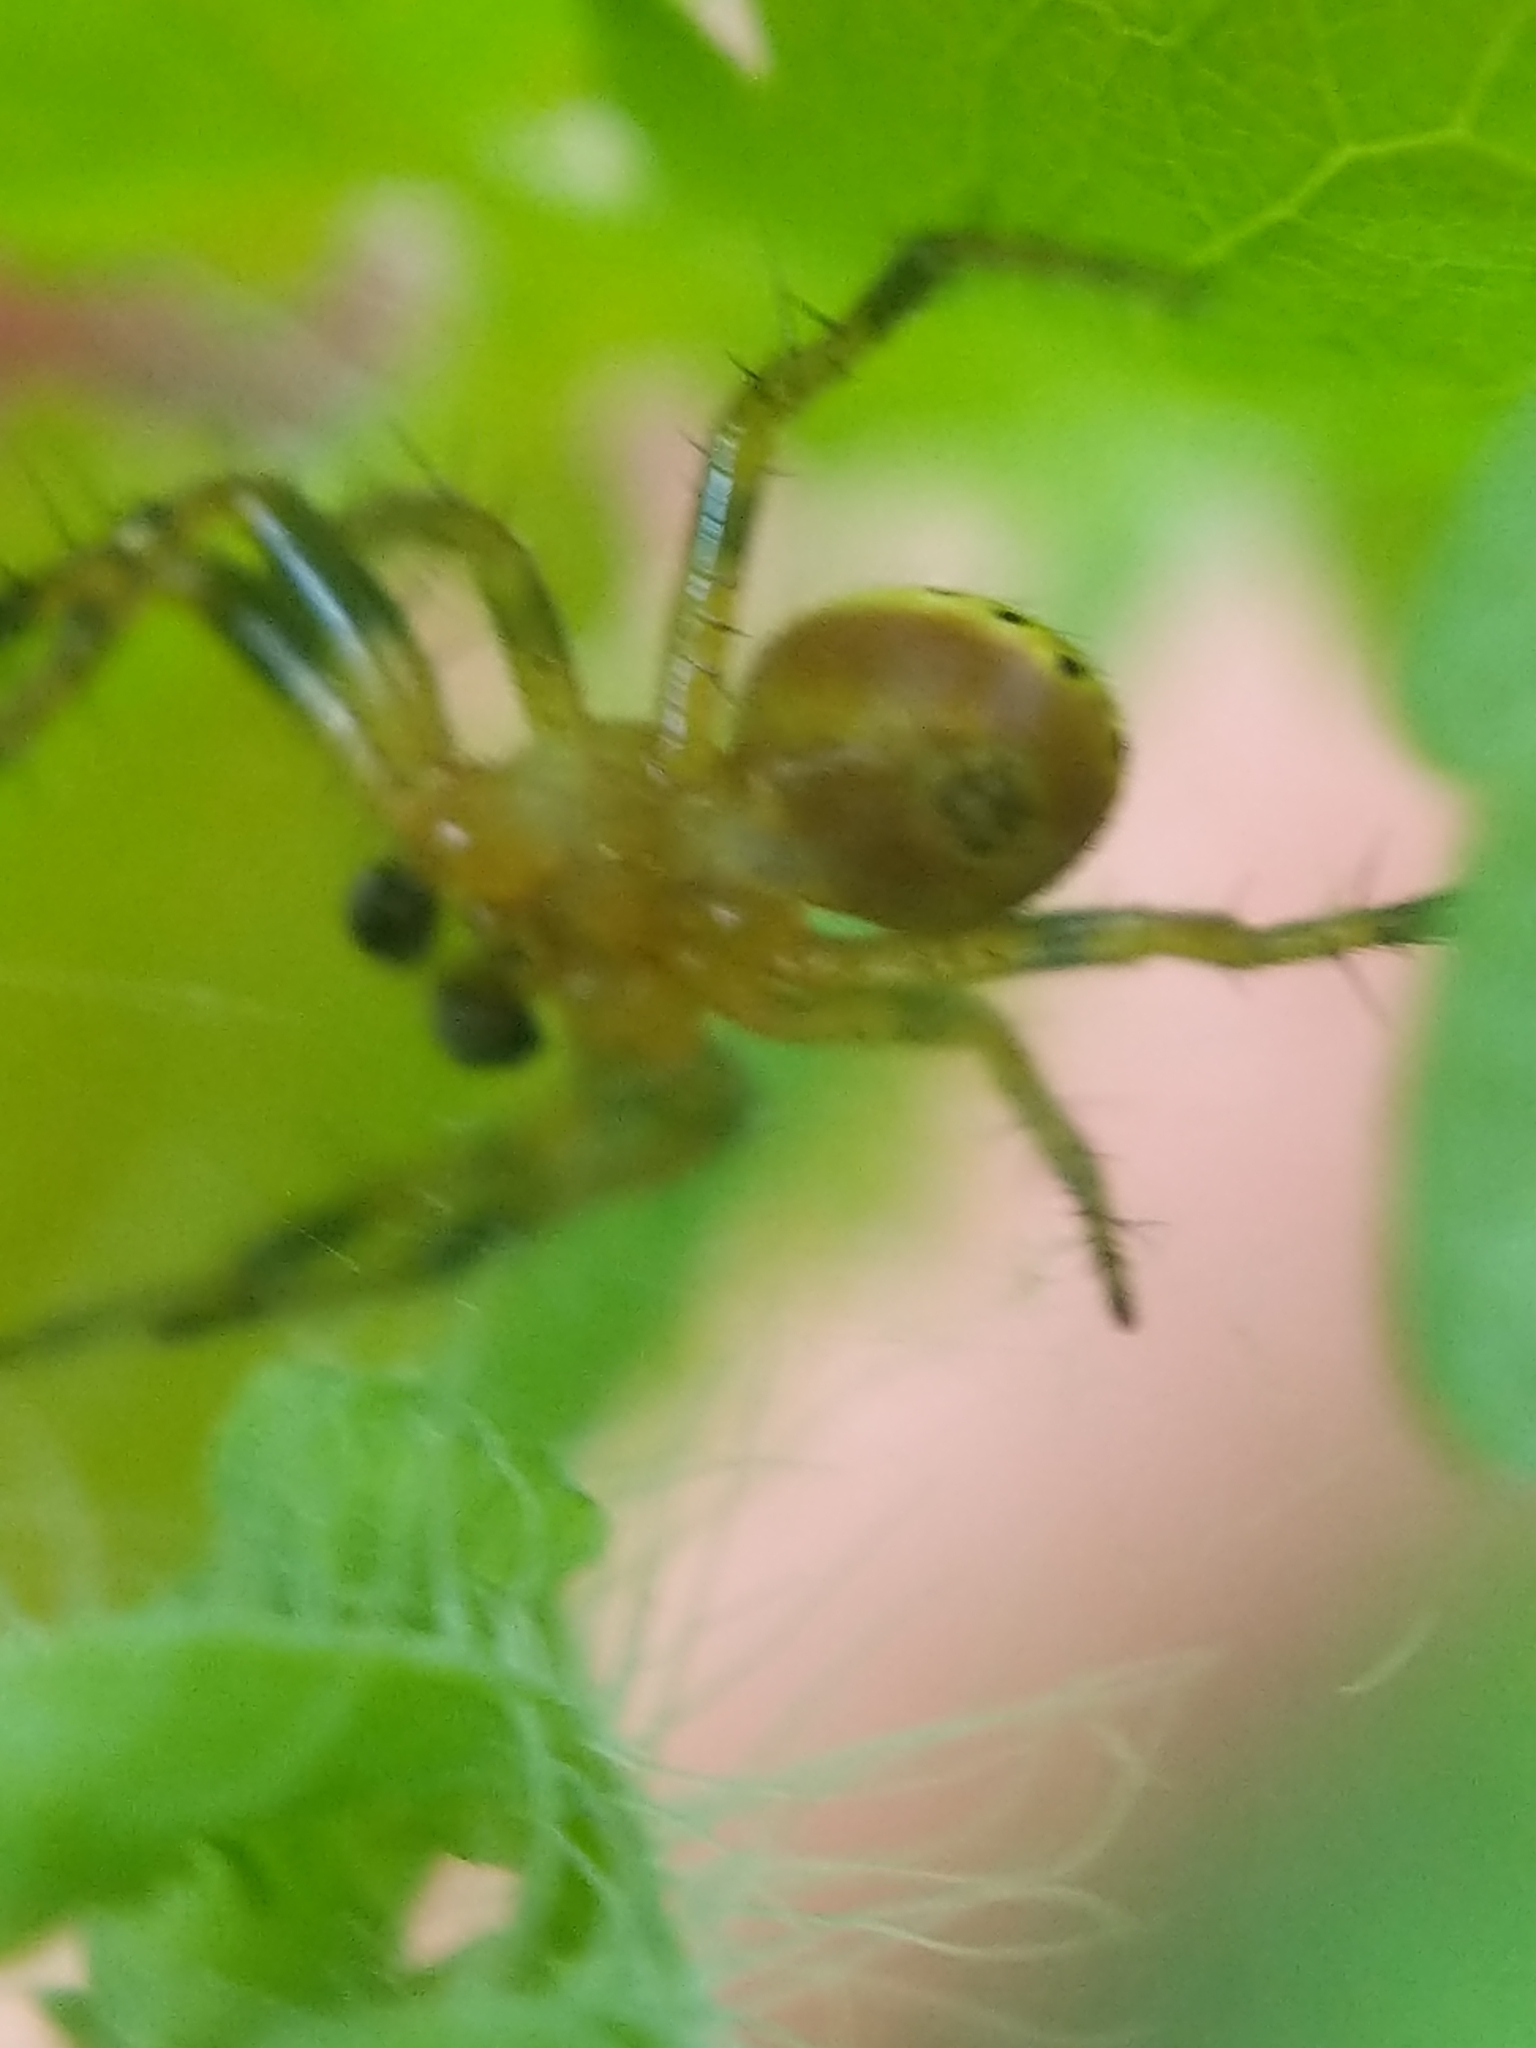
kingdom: Animalia
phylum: Arthropoda
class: Arachnida
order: Araneae
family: Araneidae
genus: Araniella
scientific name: Araniella displicata
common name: Sixspotted orb weaver
